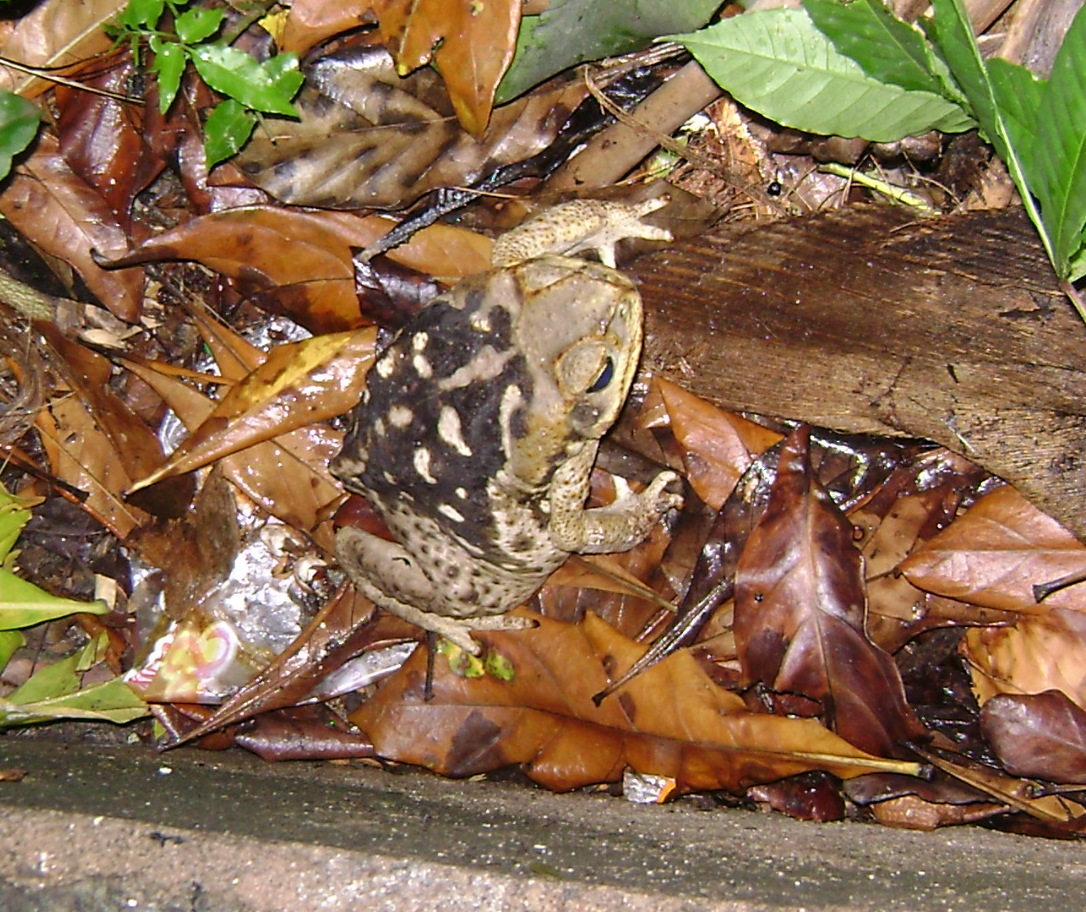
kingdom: Animalia
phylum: Chordata
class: Amphibia
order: Anura
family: Bufonidae
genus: Rhinella
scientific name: Rhinella diptycha
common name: Cope's toad
